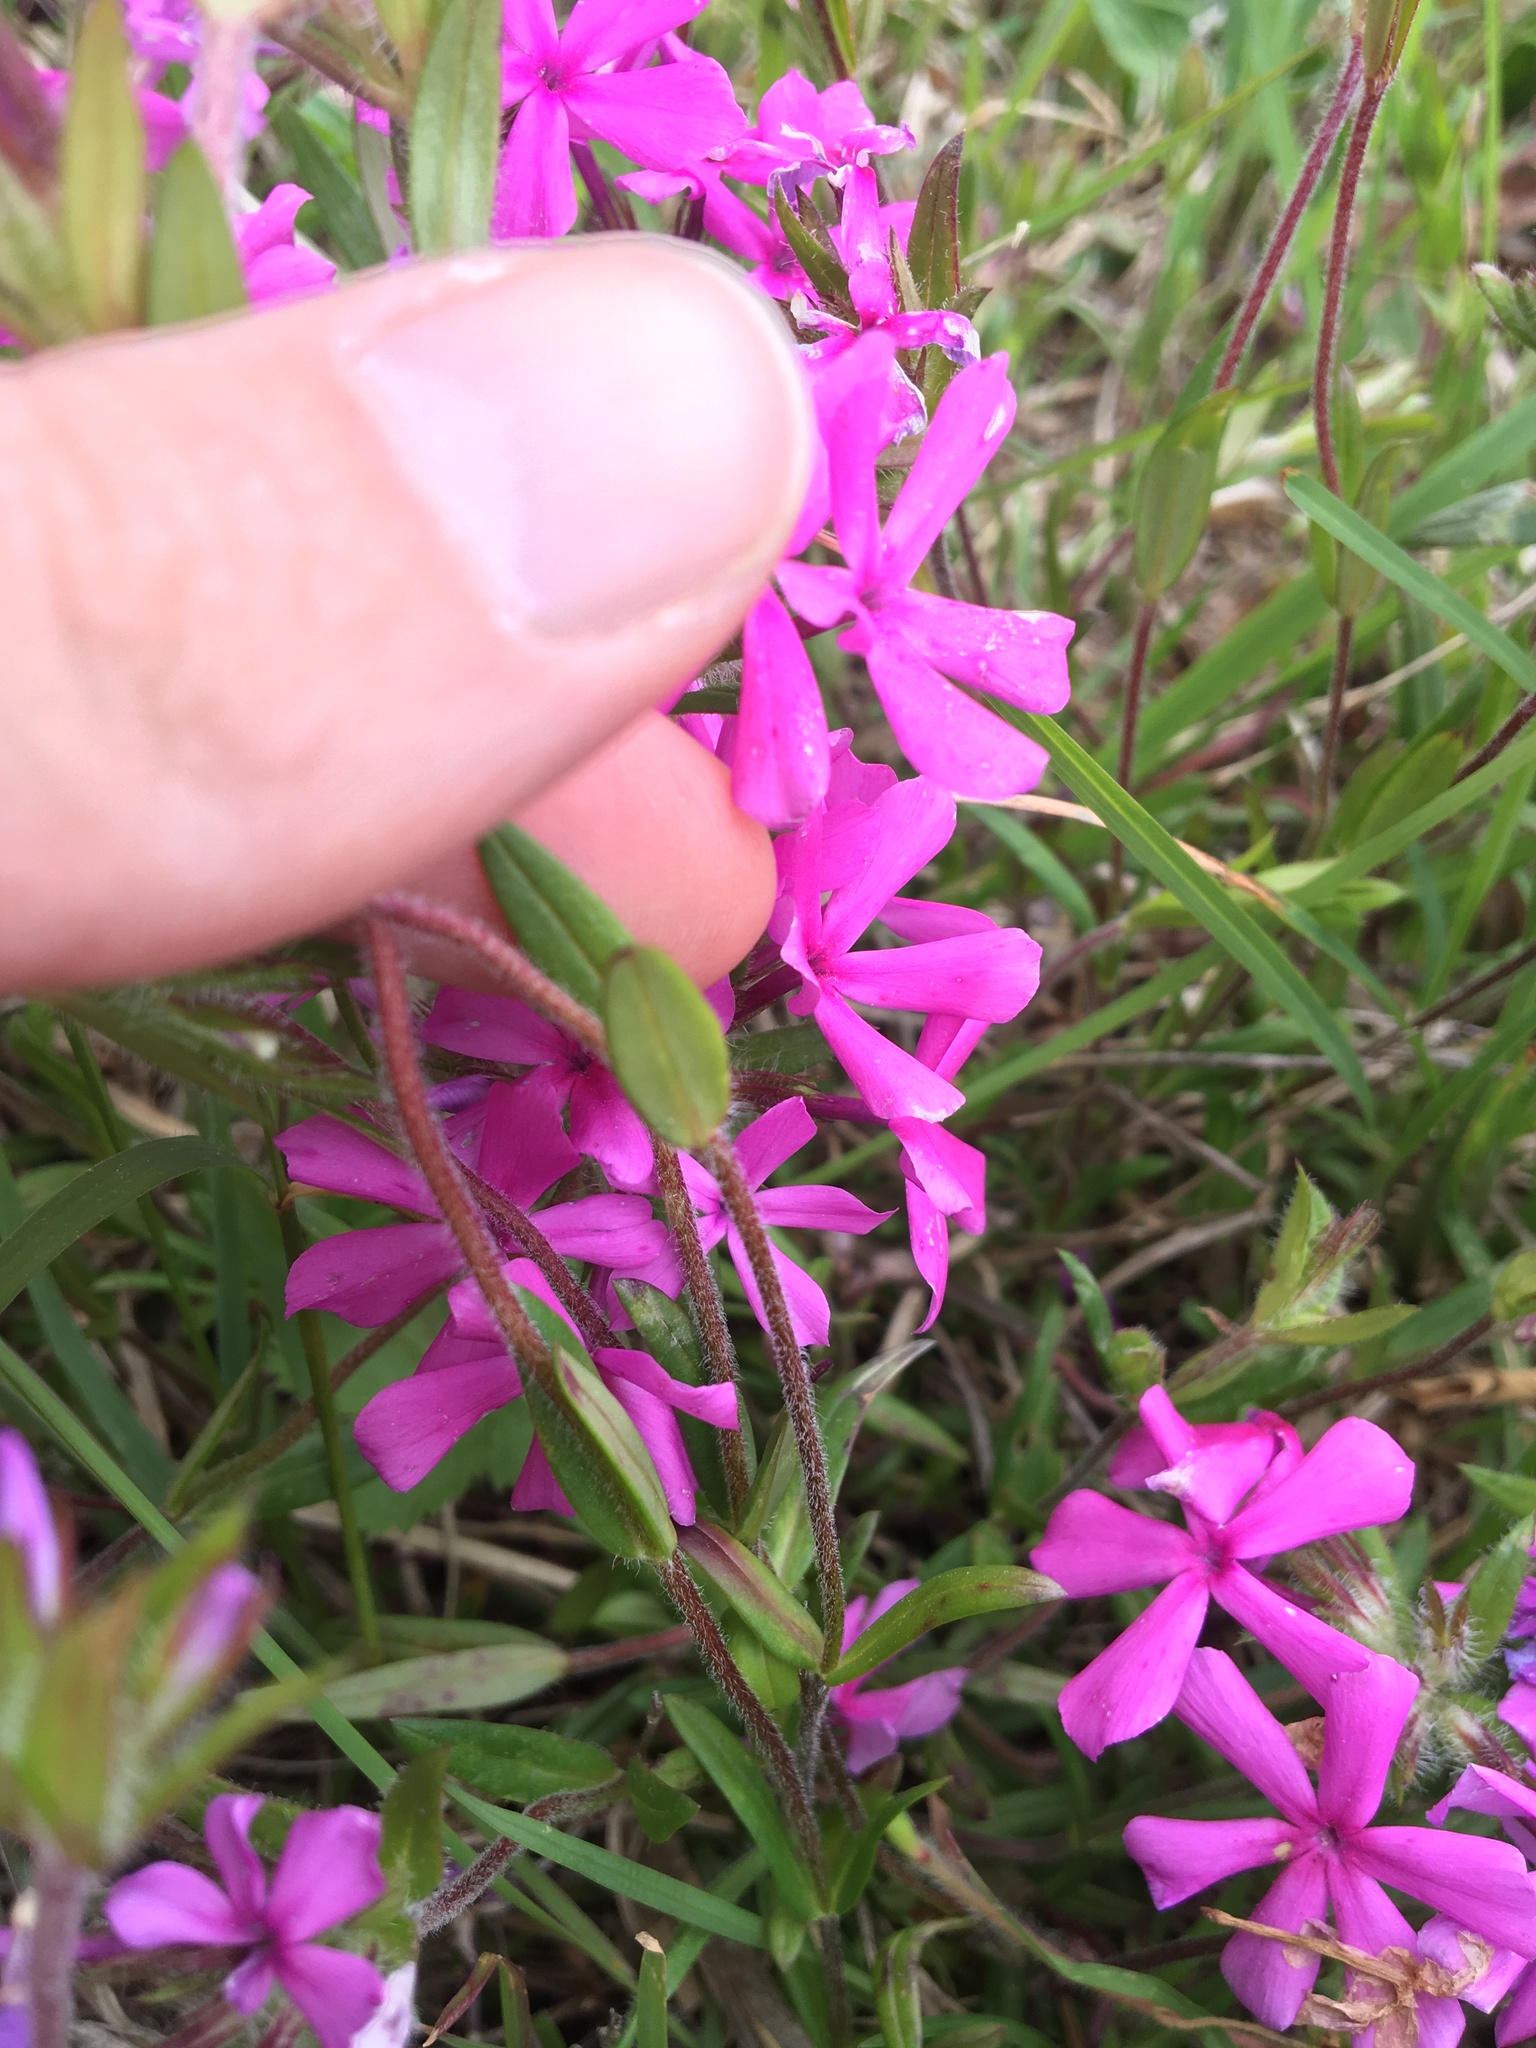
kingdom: Plantae
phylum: Tracheophyta
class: Magnoliopsida
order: Ericales
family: Polemoniaceae
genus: Phlox
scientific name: Phlox amoena
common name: Hairy phlox
